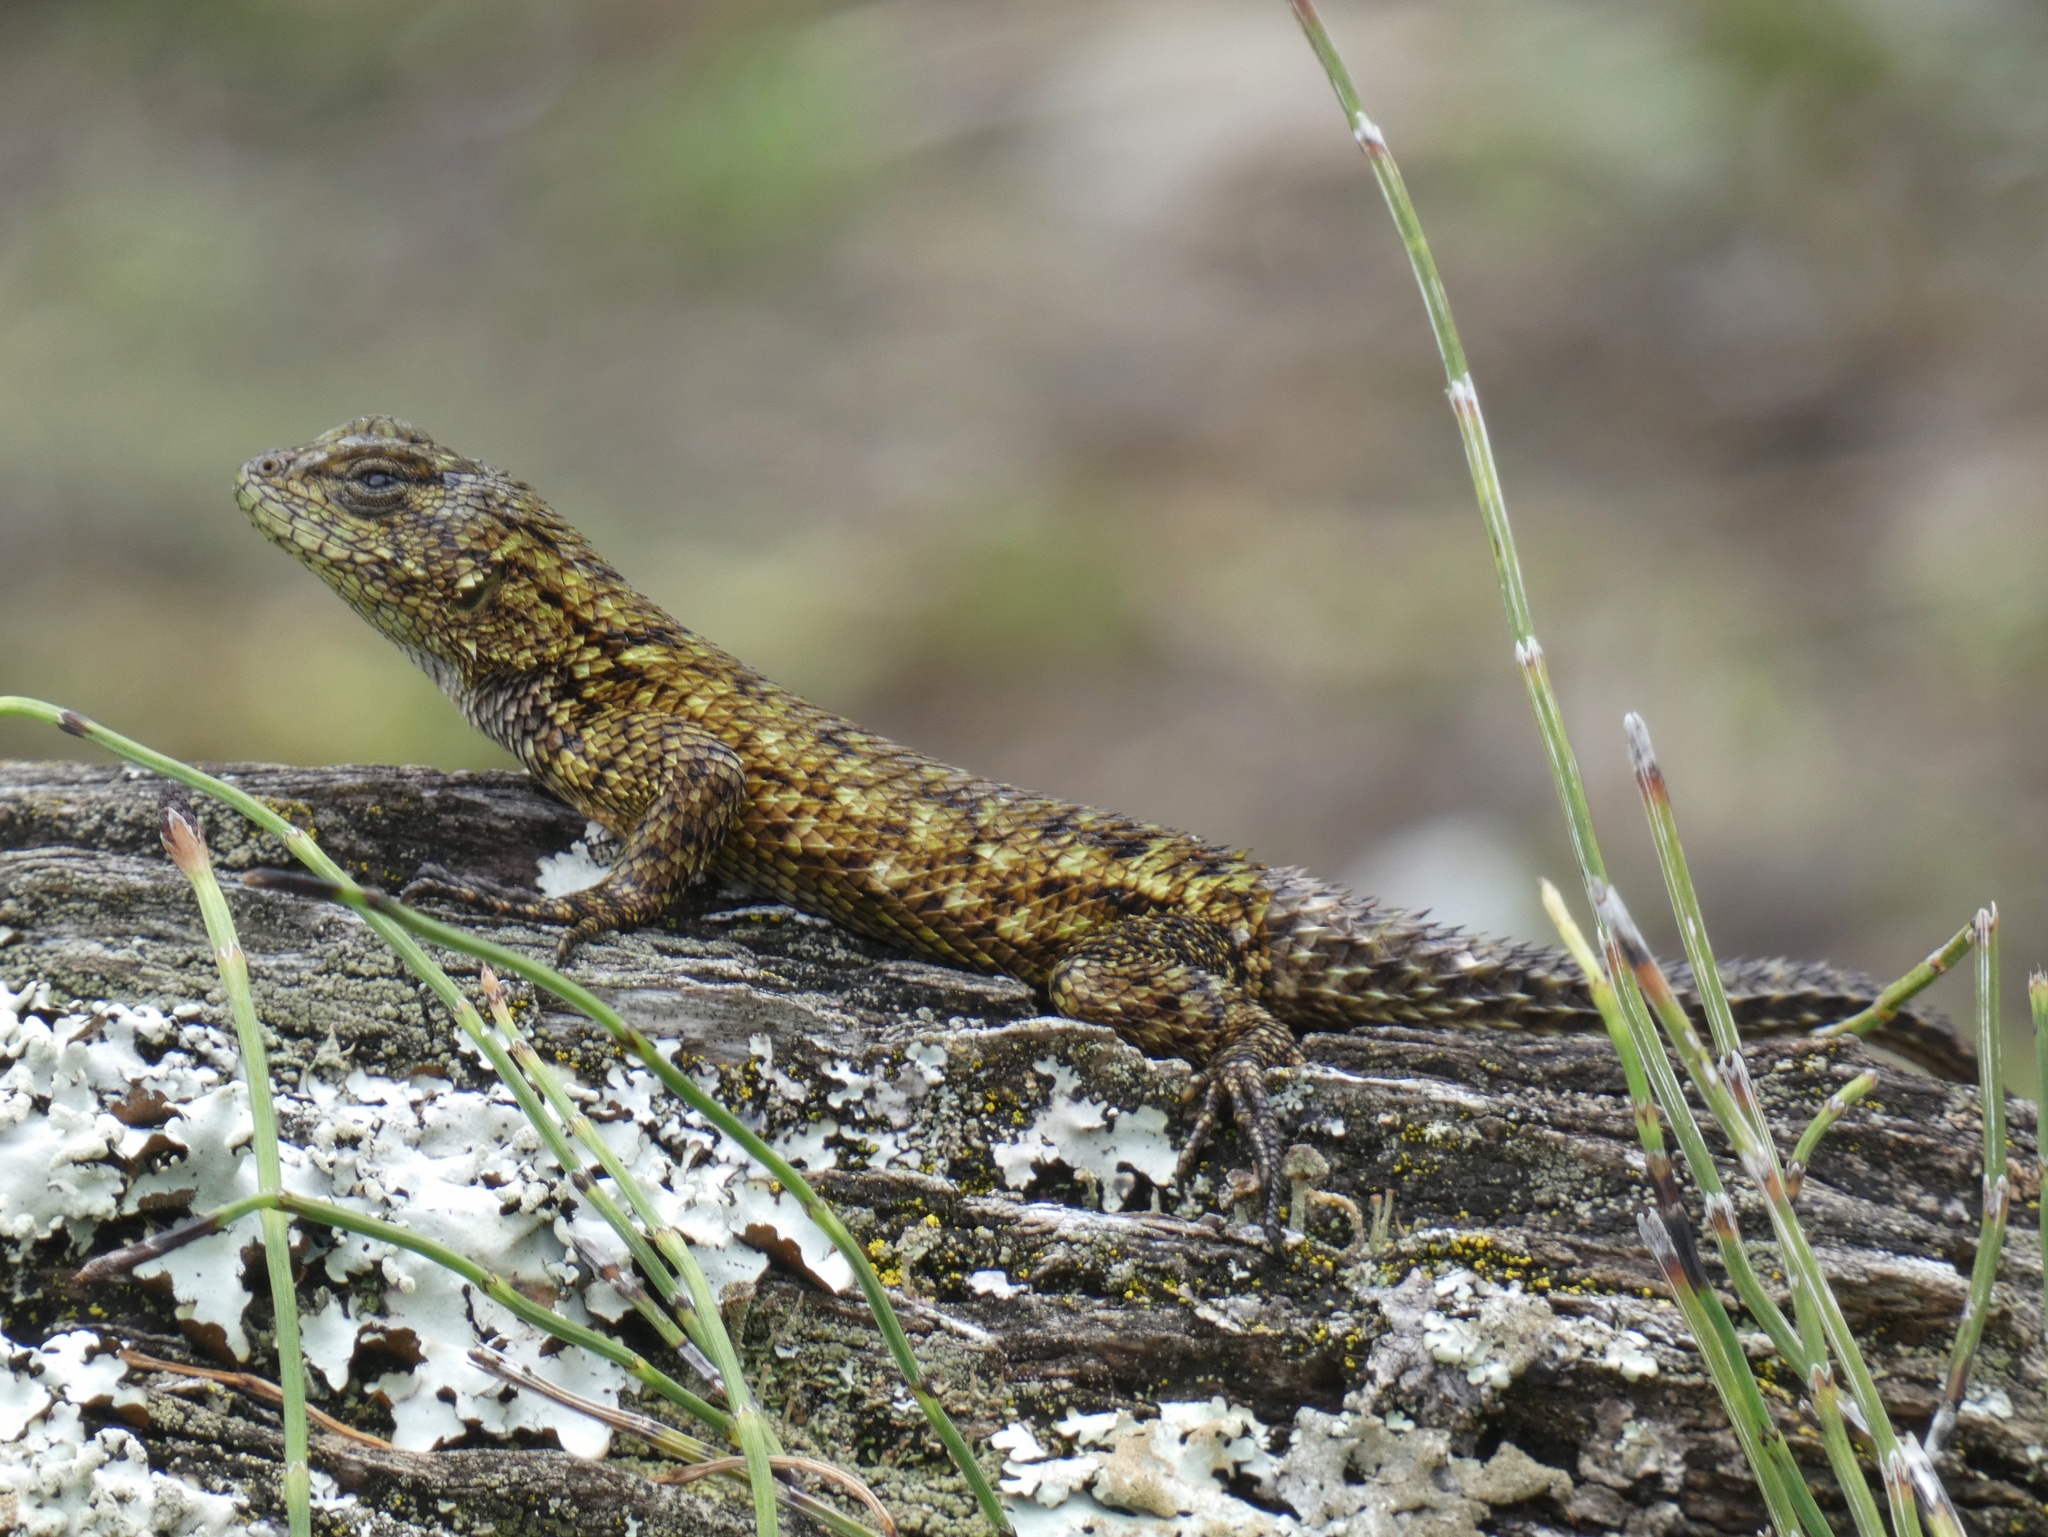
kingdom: Animalia
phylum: Chordata
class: Squamata
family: Phrynosomatidae
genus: Sceloporus
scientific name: Sceloporus malachiticus
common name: Green spiny lizard
